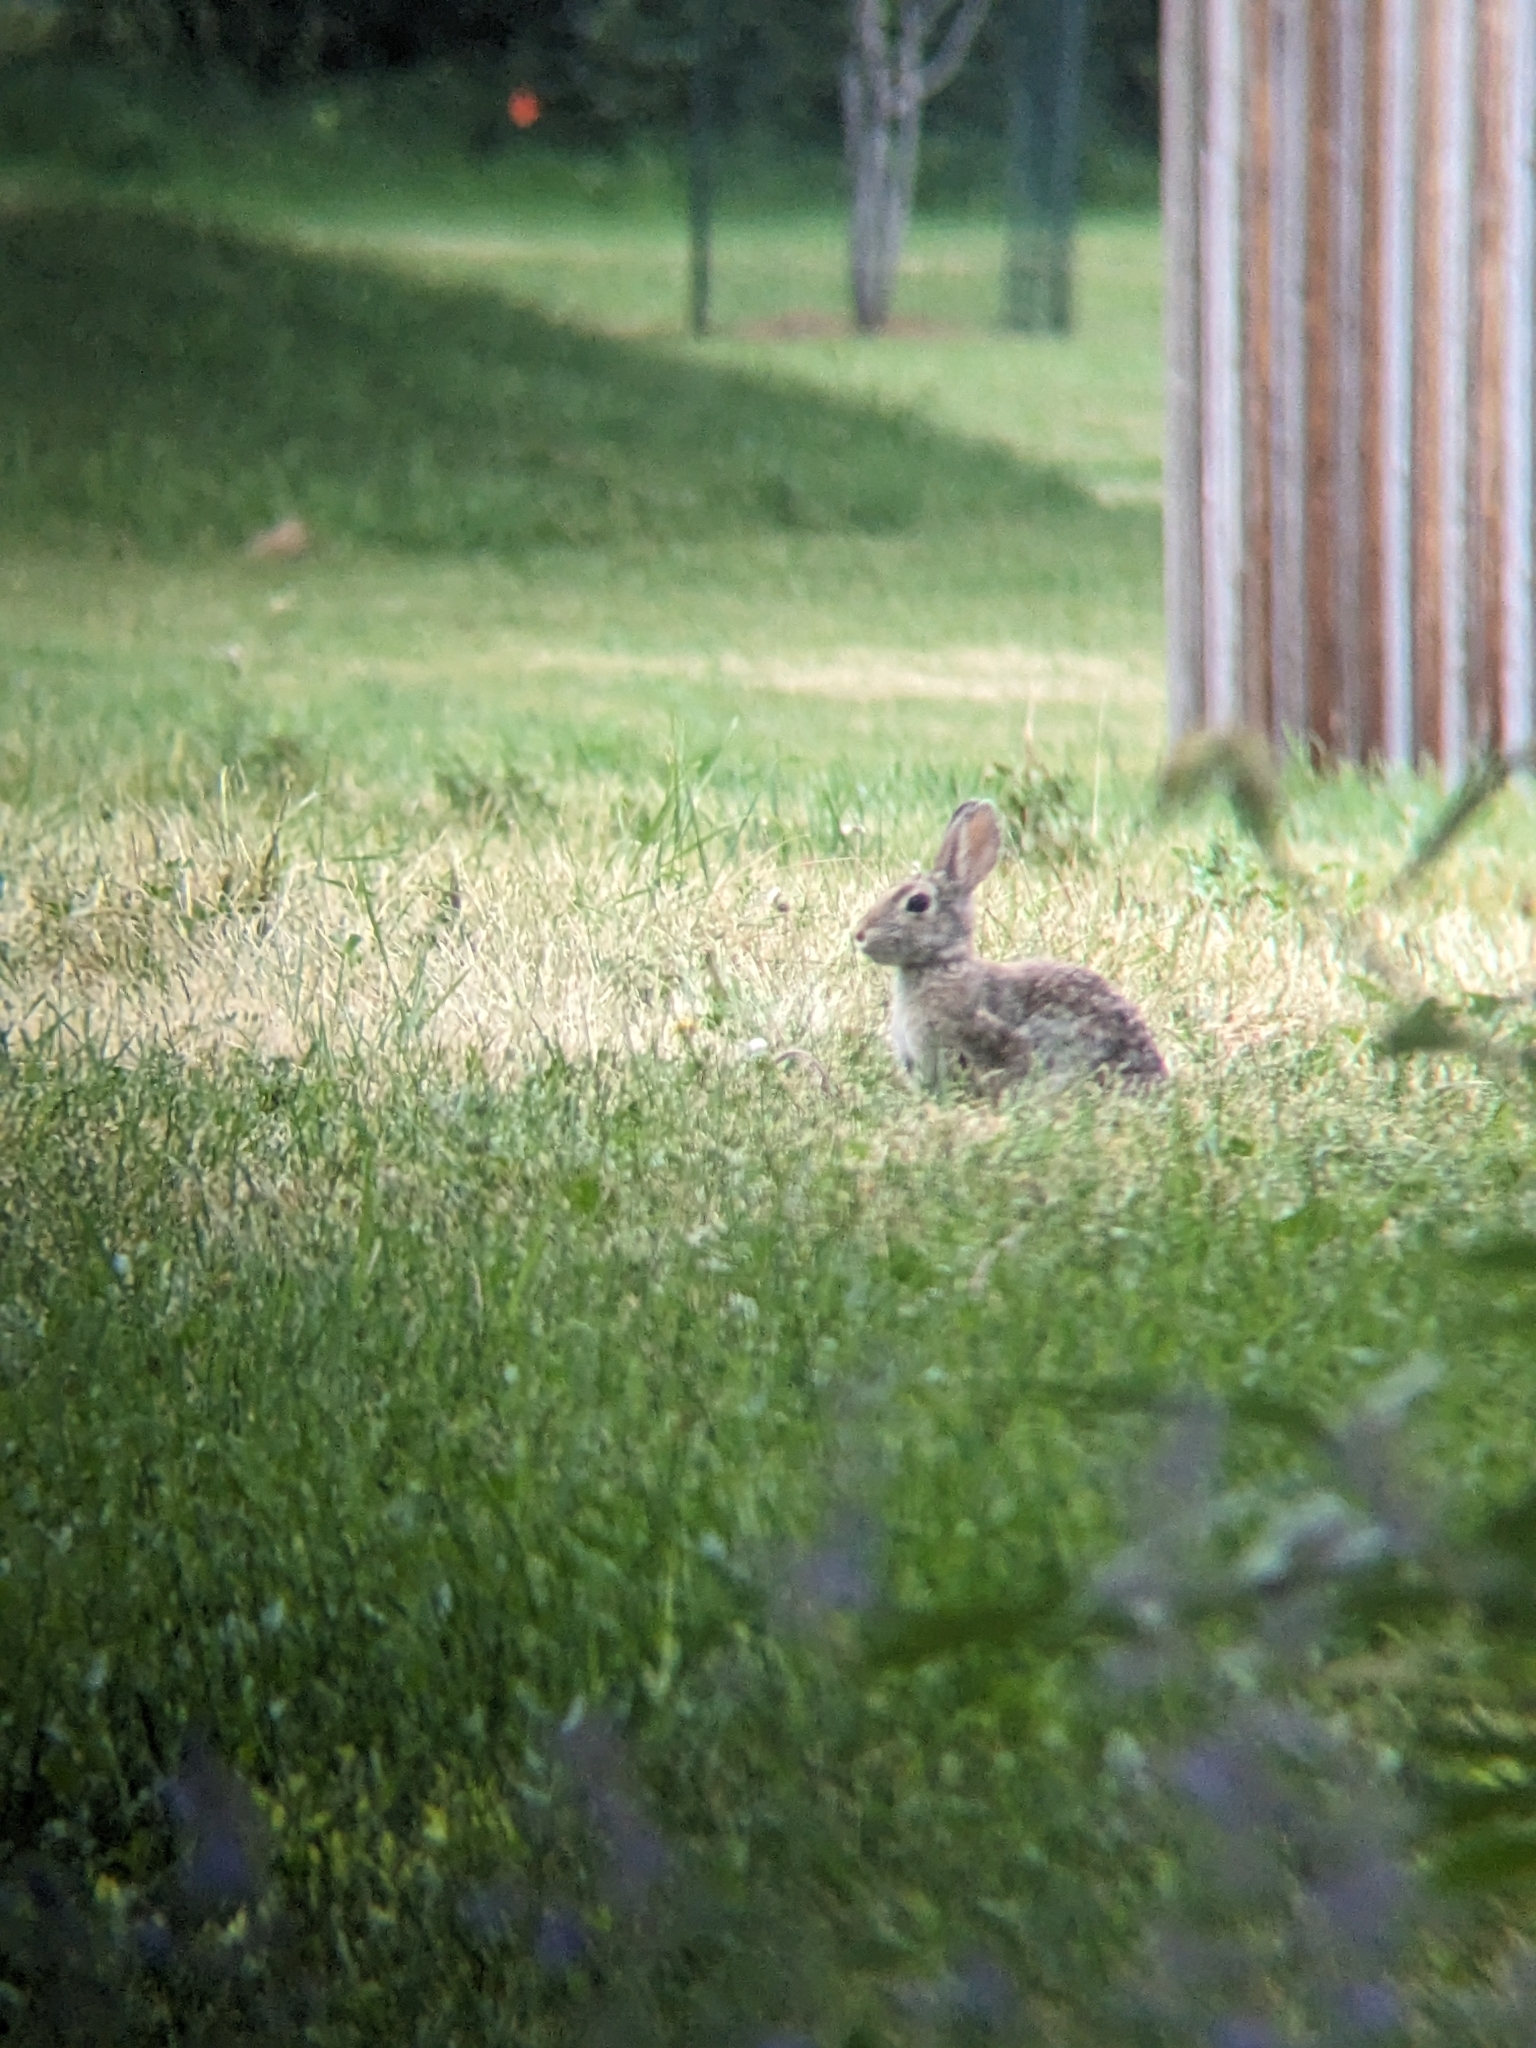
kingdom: Animalia
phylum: Chordata
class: Mammalia
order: Lagomorpha
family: Leporidae
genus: Sylvilagus
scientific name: Sylvilagus nuttallii
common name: Mountain cottontail
